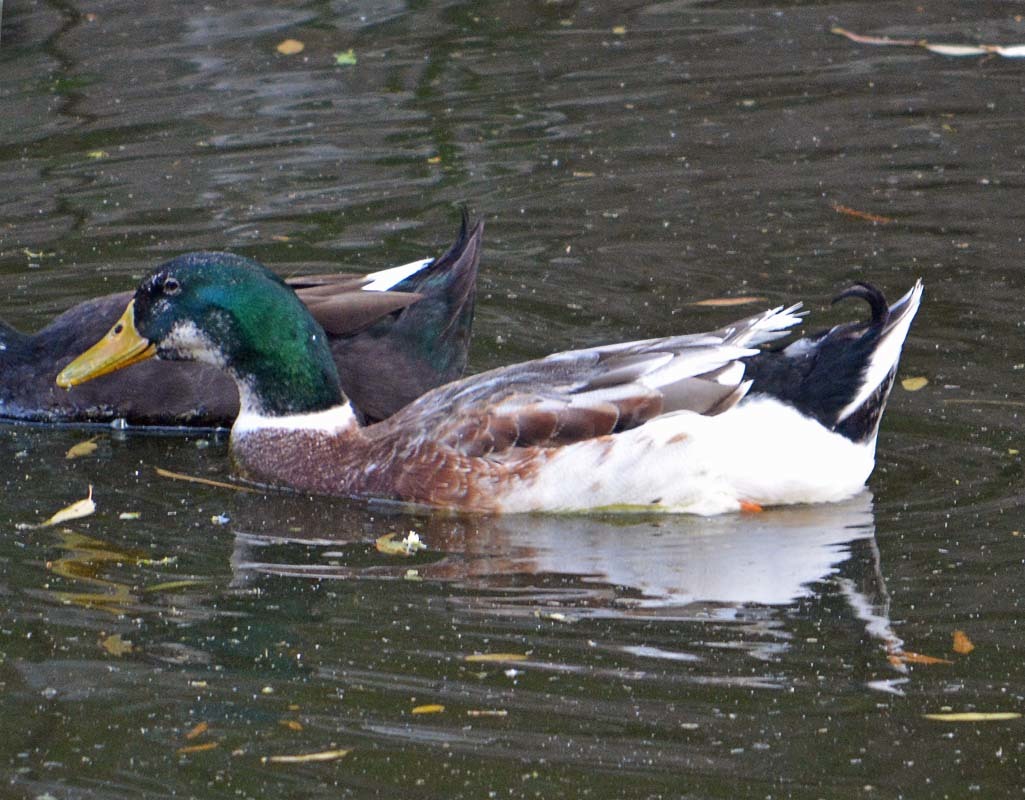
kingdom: Animalia
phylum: Chordata
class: Aves
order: Anseriformes
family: Anatidae
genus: Anas
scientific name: Anas platyrhynchos
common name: Mallard
